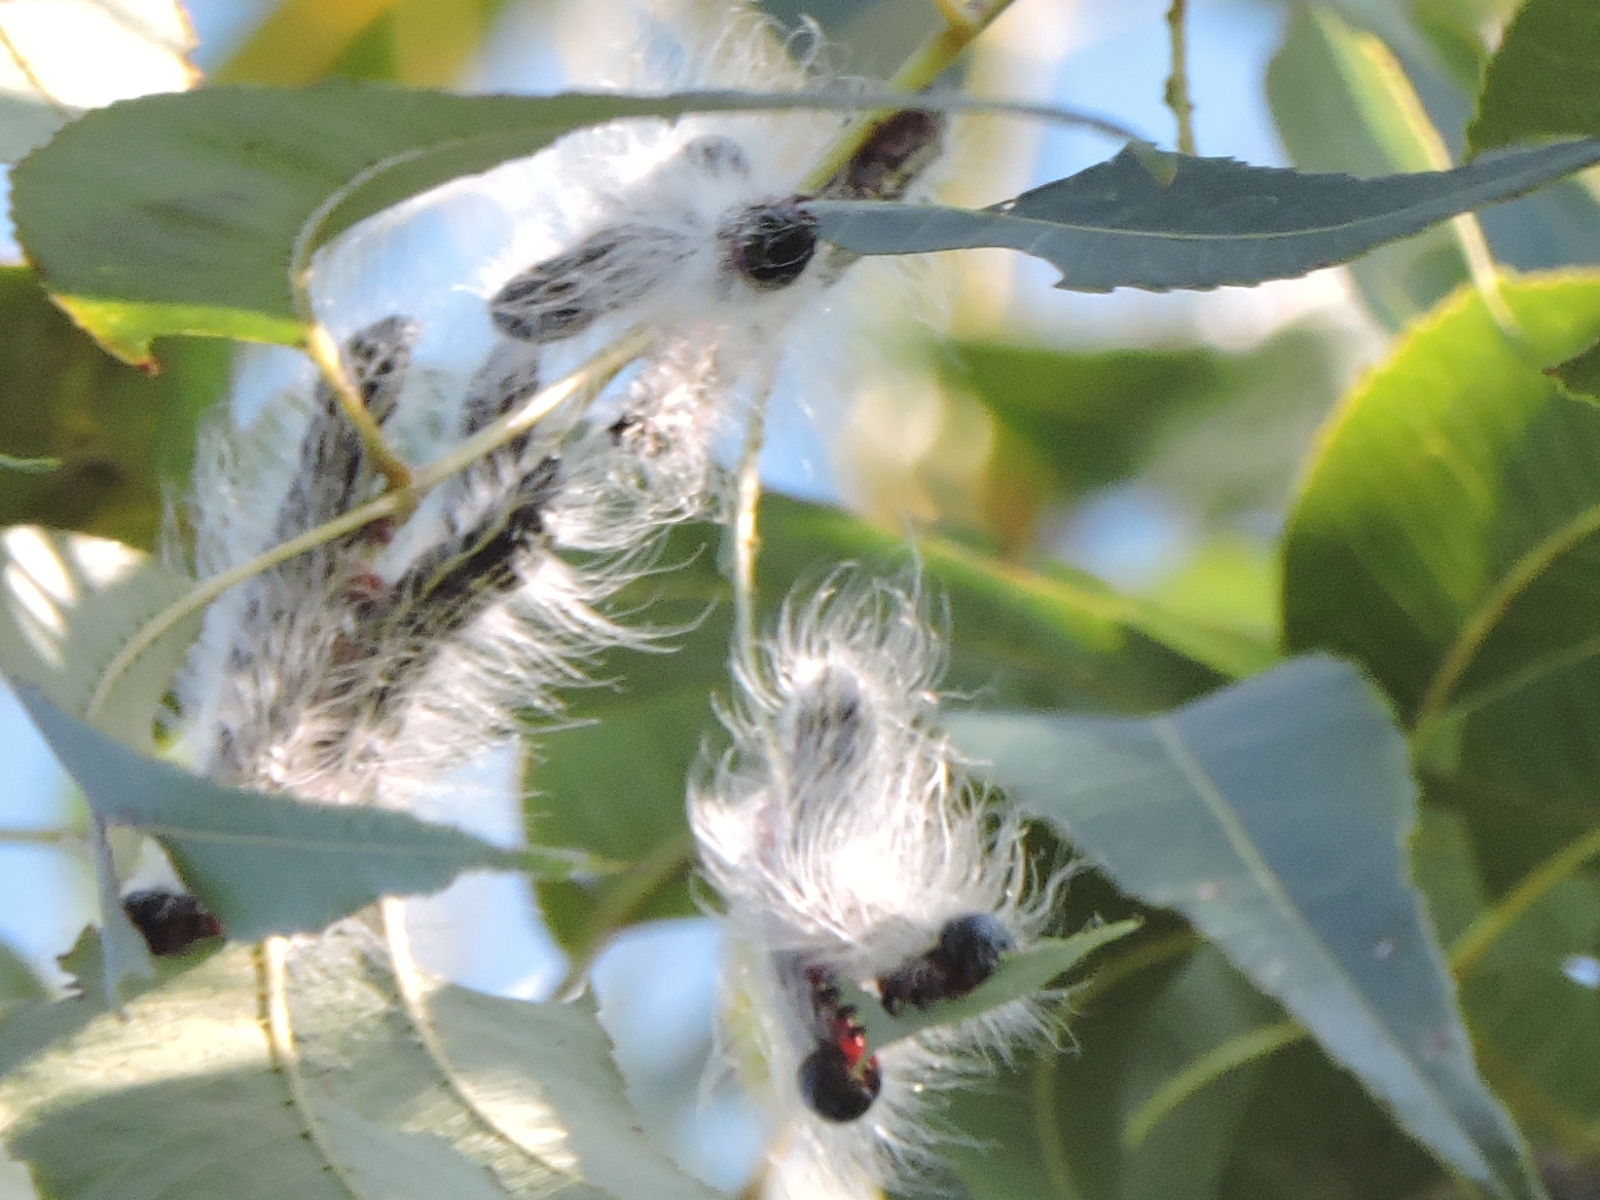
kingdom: Animalia
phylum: Arthropoda
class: Insecta
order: Lepidoptera
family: Notodontidae
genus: Datana
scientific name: Datana integerrima
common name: Walnut caterpillar
